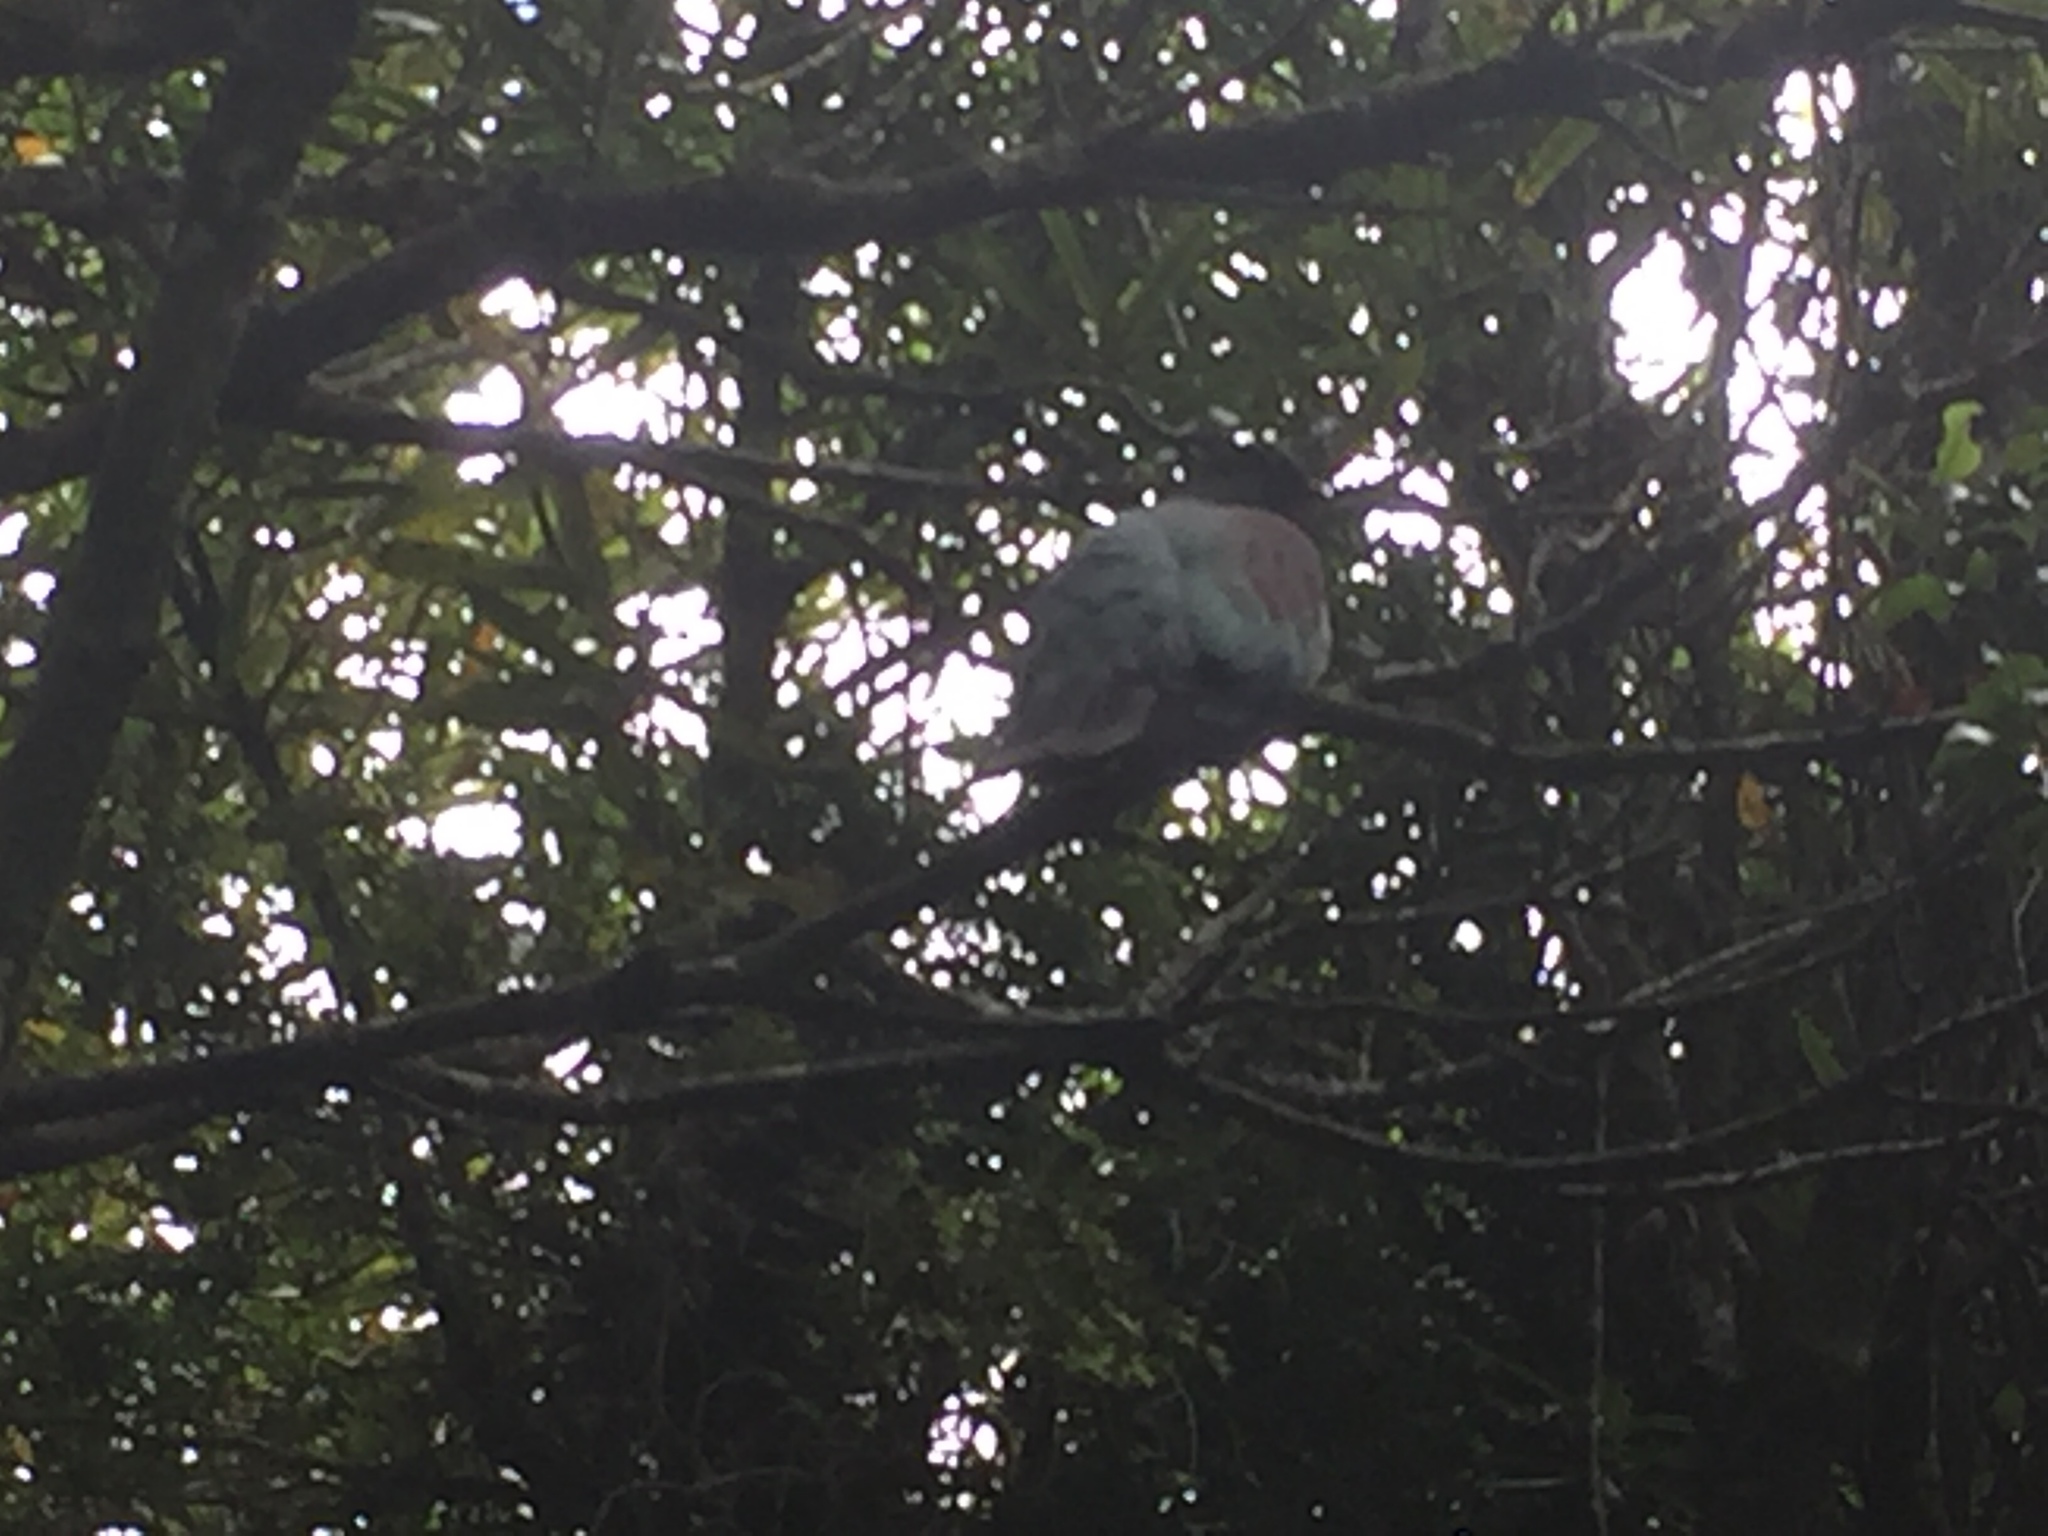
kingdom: Animalia
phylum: Chordata
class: Aves
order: Columbiformes
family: Columbidae
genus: Hemiphaga
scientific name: Hemiphaga novaeseelandiae
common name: New zealand pigeon
